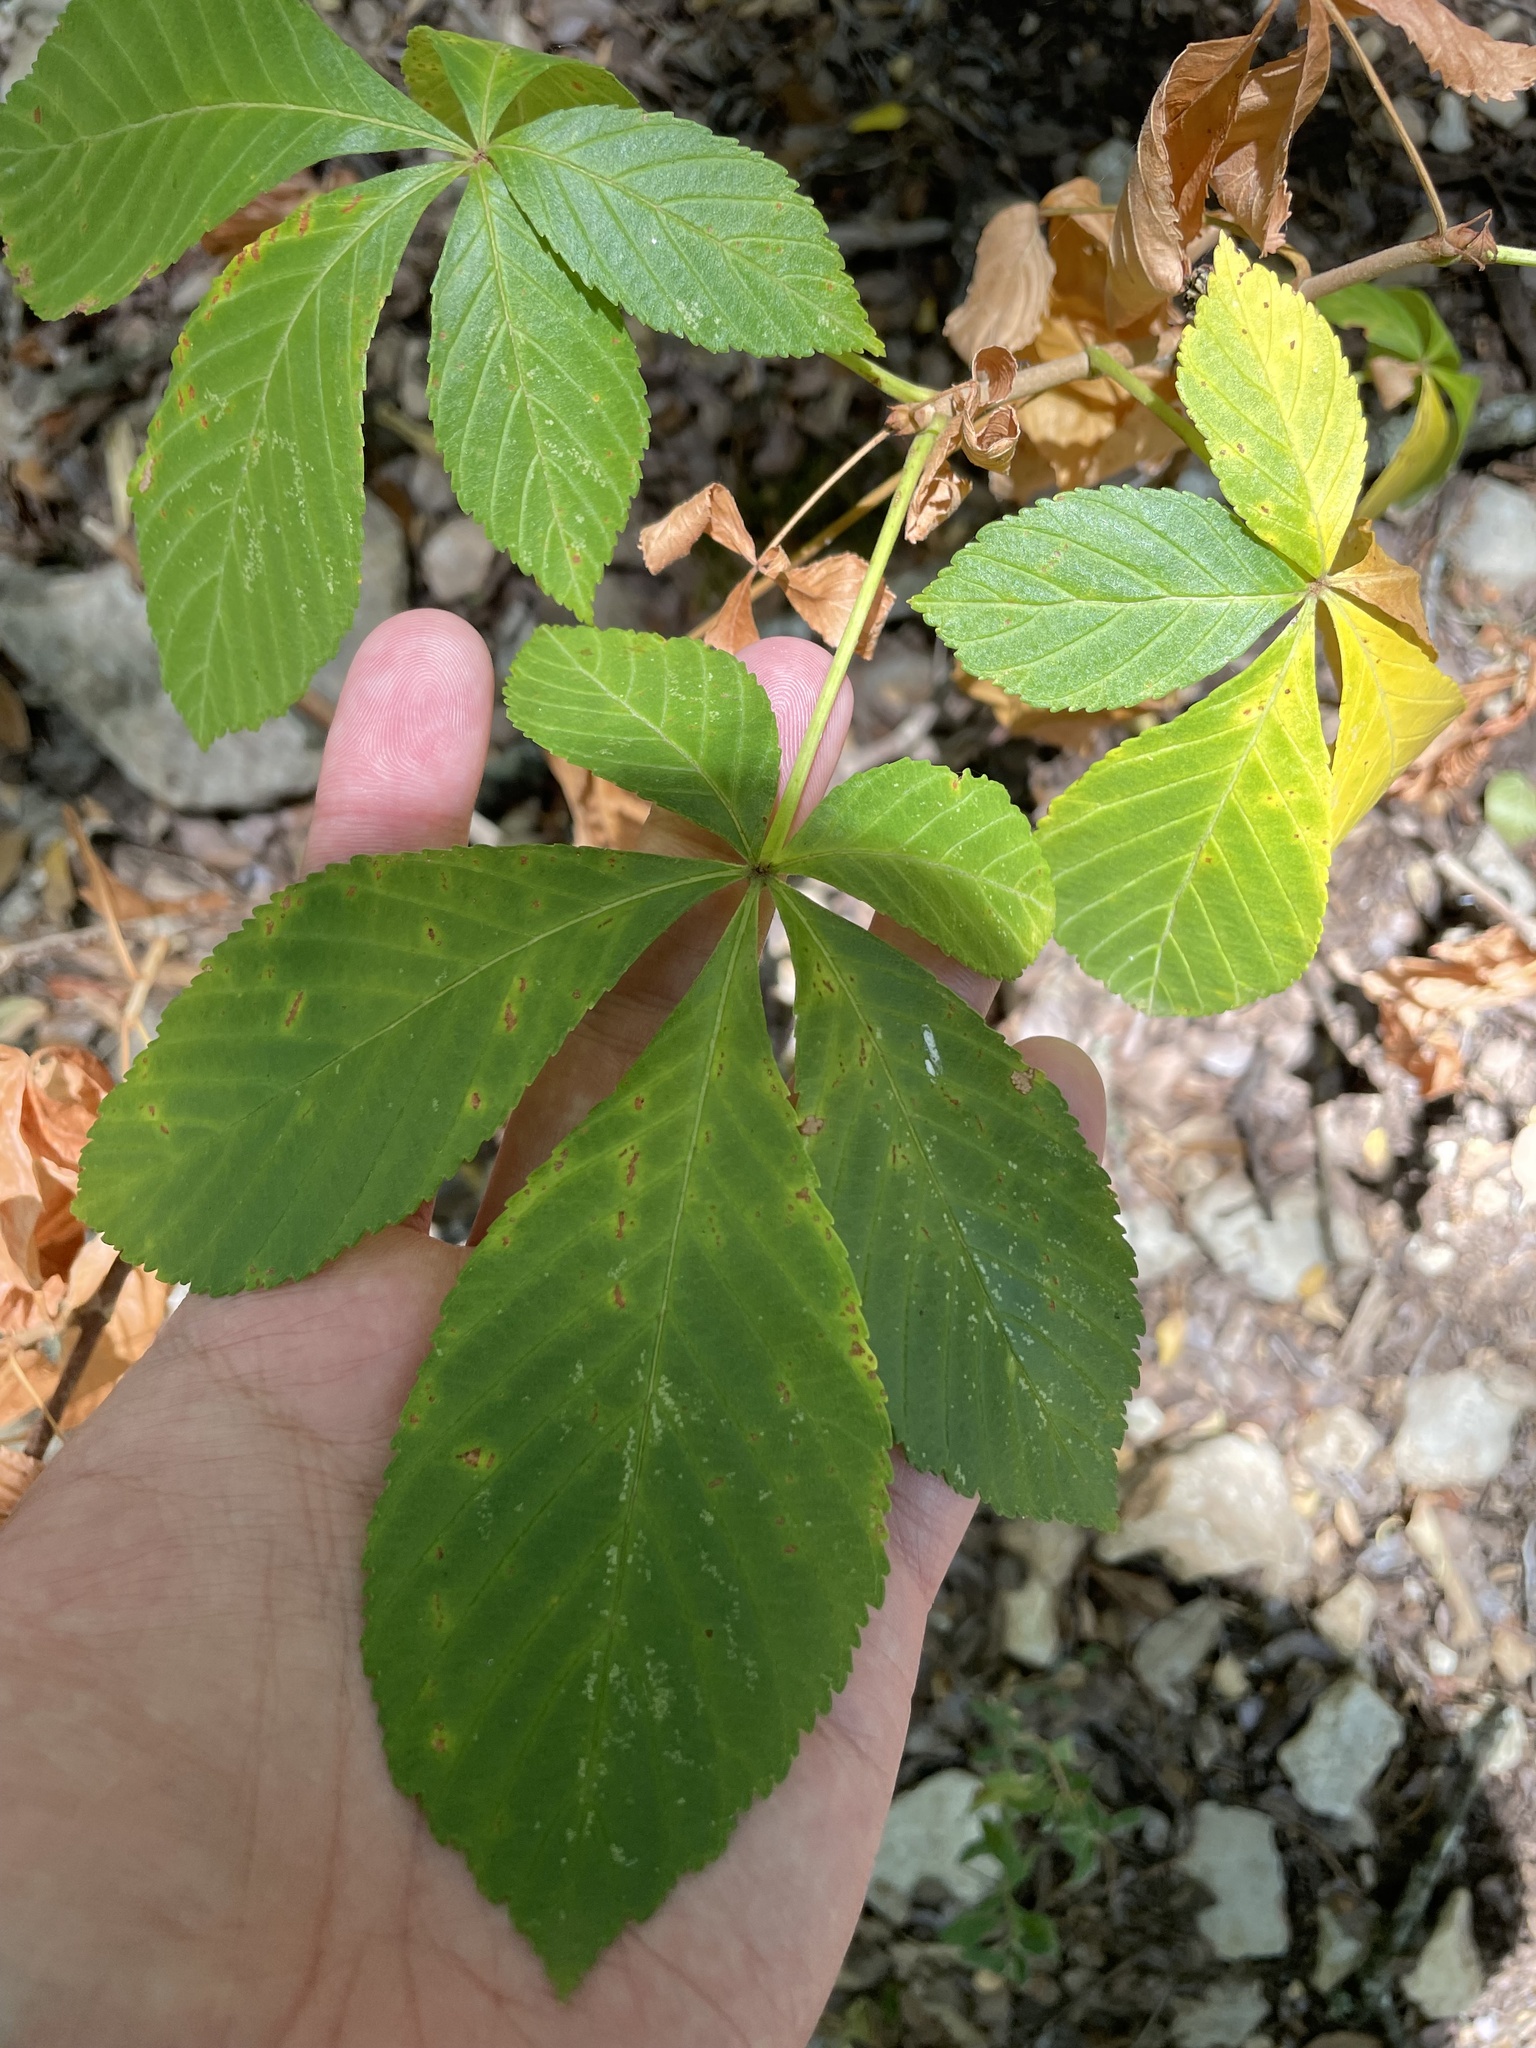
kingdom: Plantae
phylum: Tracheophyta
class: Magnoliopsida
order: Sapindales
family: Sapindaceae
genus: Aesculus
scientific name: Aesculus pavia
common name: Red buckeye
